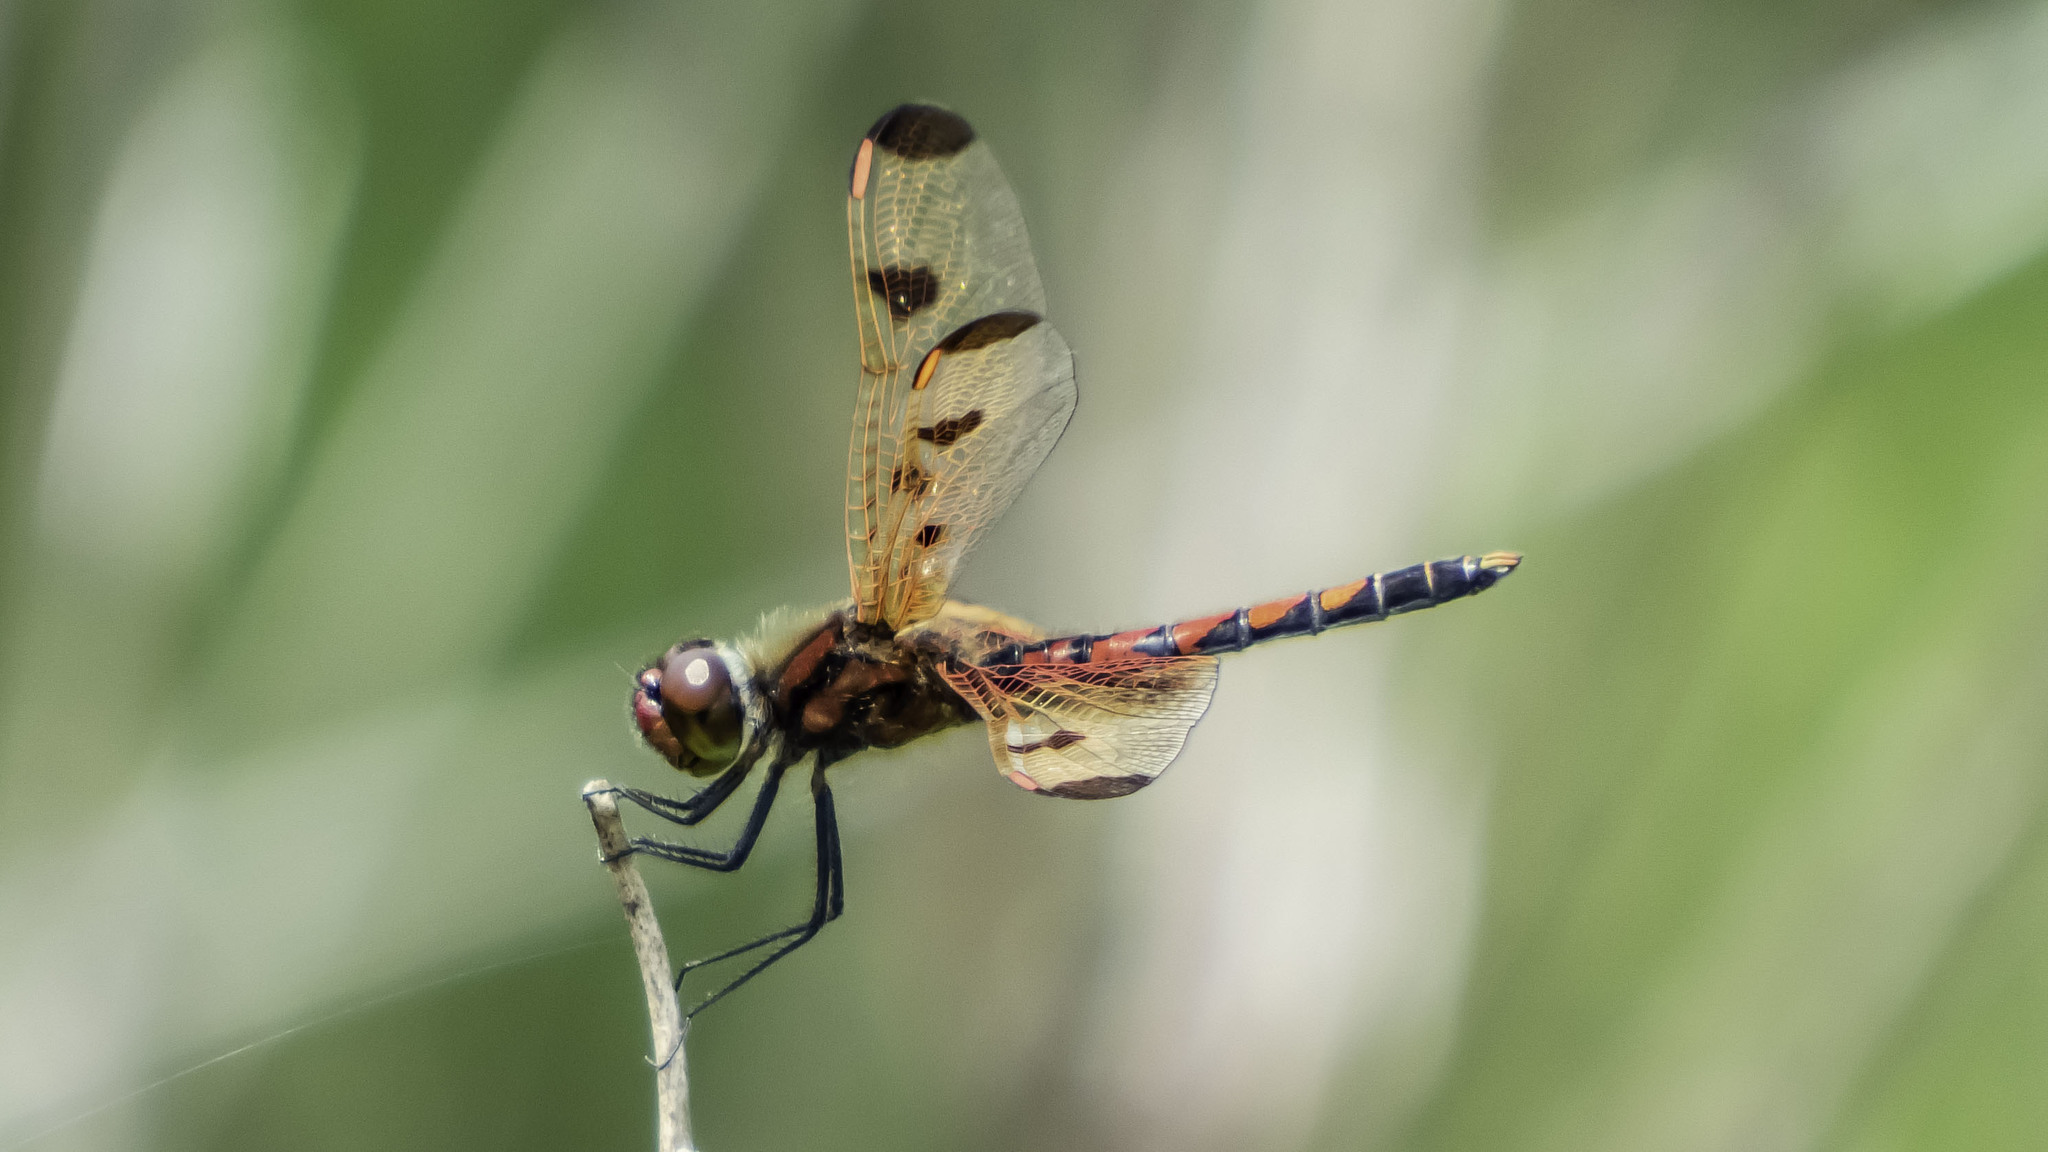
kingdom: Animalia
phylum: Arthropoda
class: Insecta
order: Odonata
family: Libellulidae
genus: Celithemis
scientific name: Celithemis elisa
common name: Calico pennant
